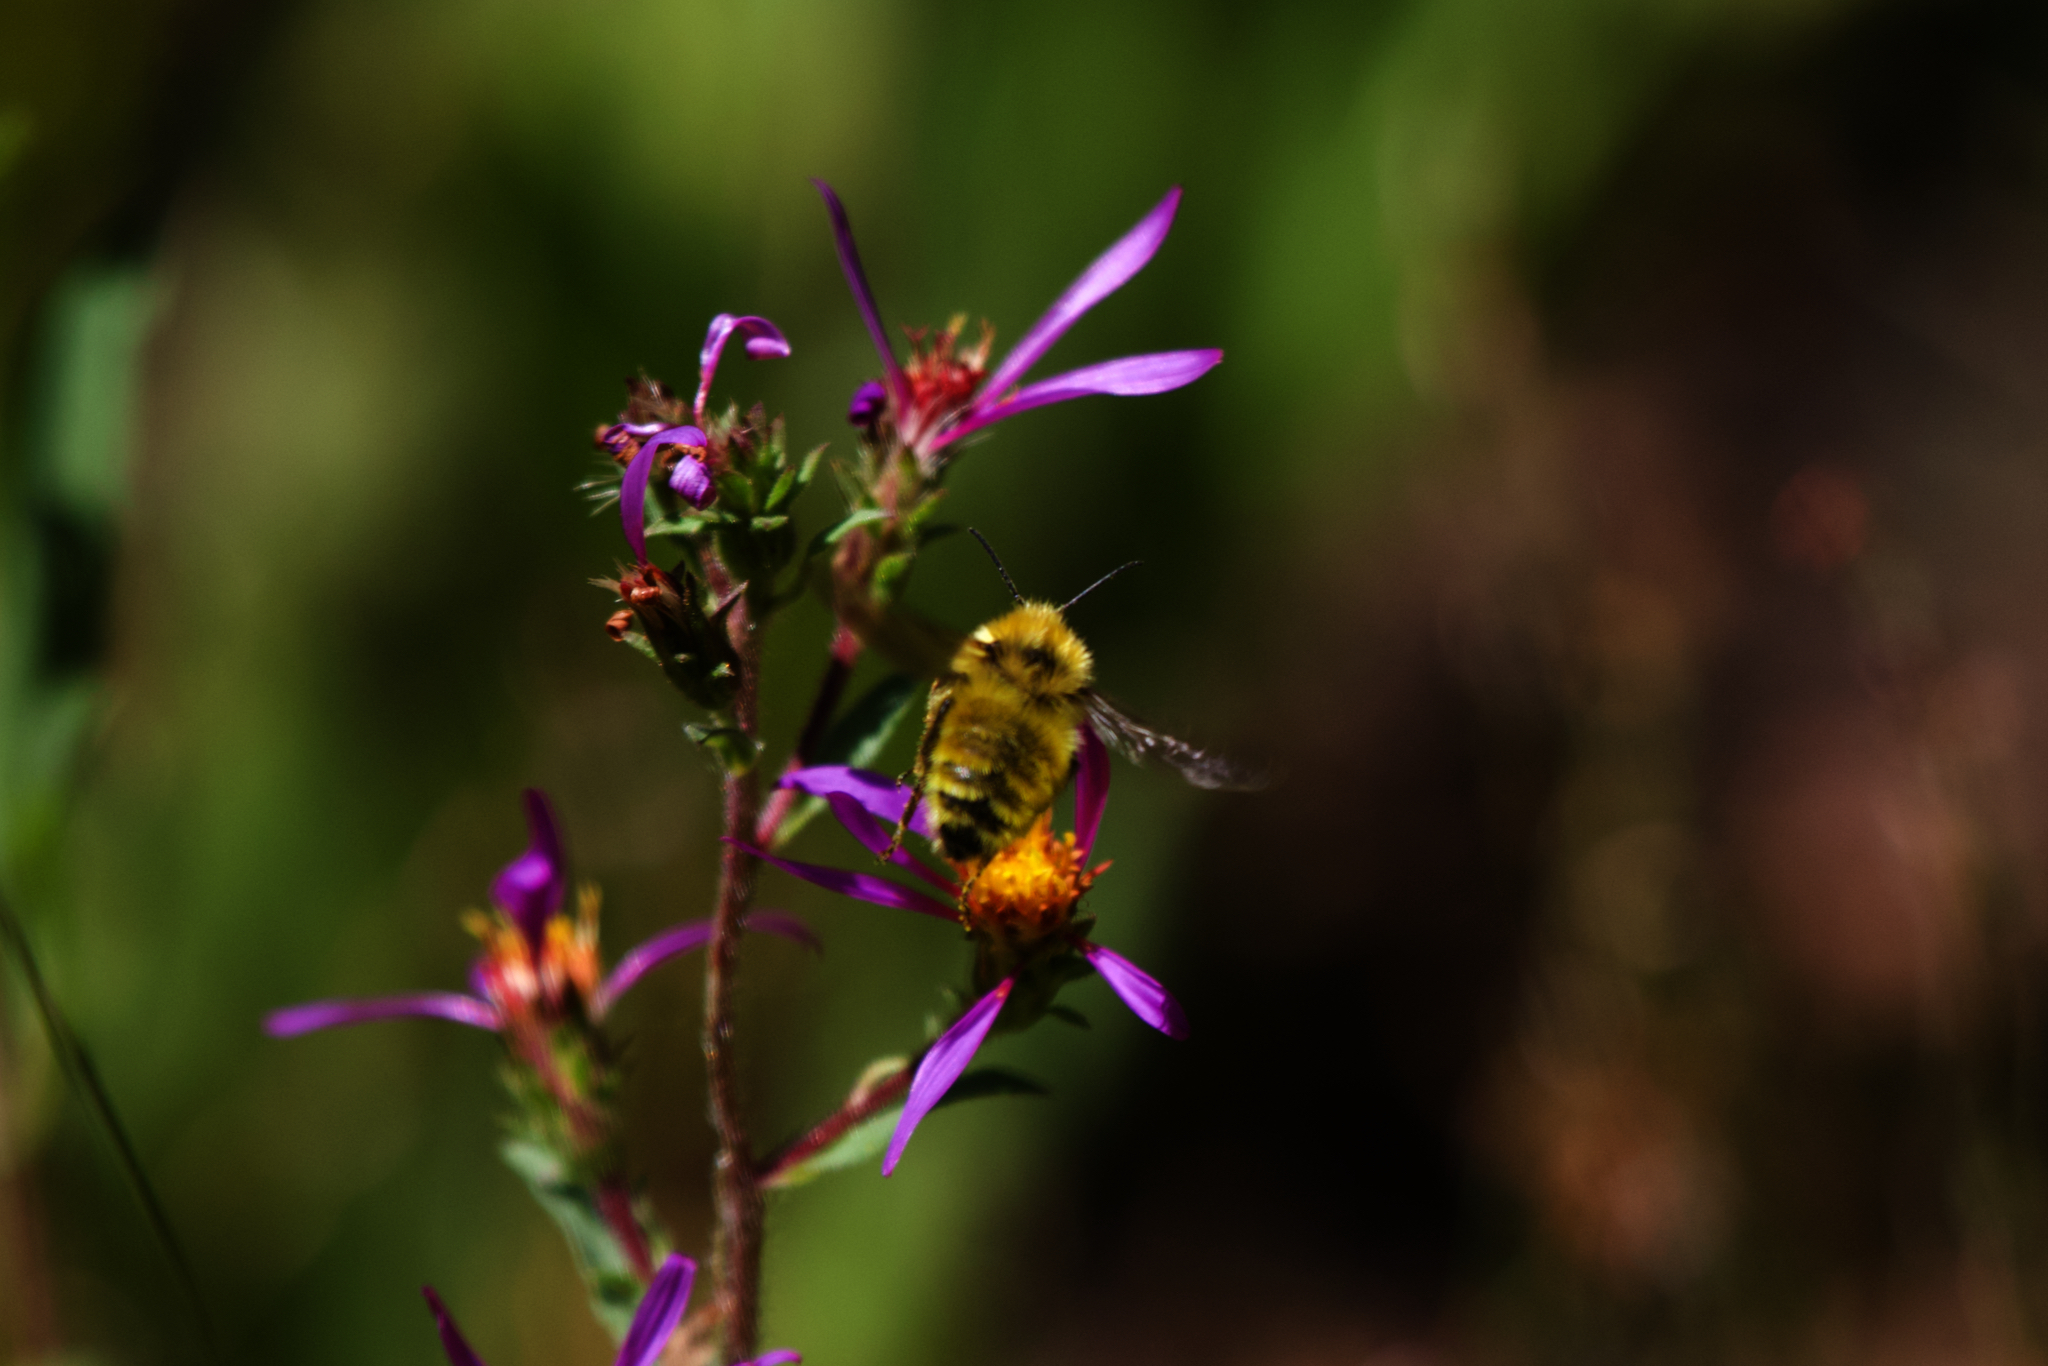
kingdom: Animalia
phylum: Arthropoda
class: Insecta
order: Hymenoptera
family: Apidae
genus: Bombus
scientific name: Bombus vandykei
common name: Van dyke bumble bee
